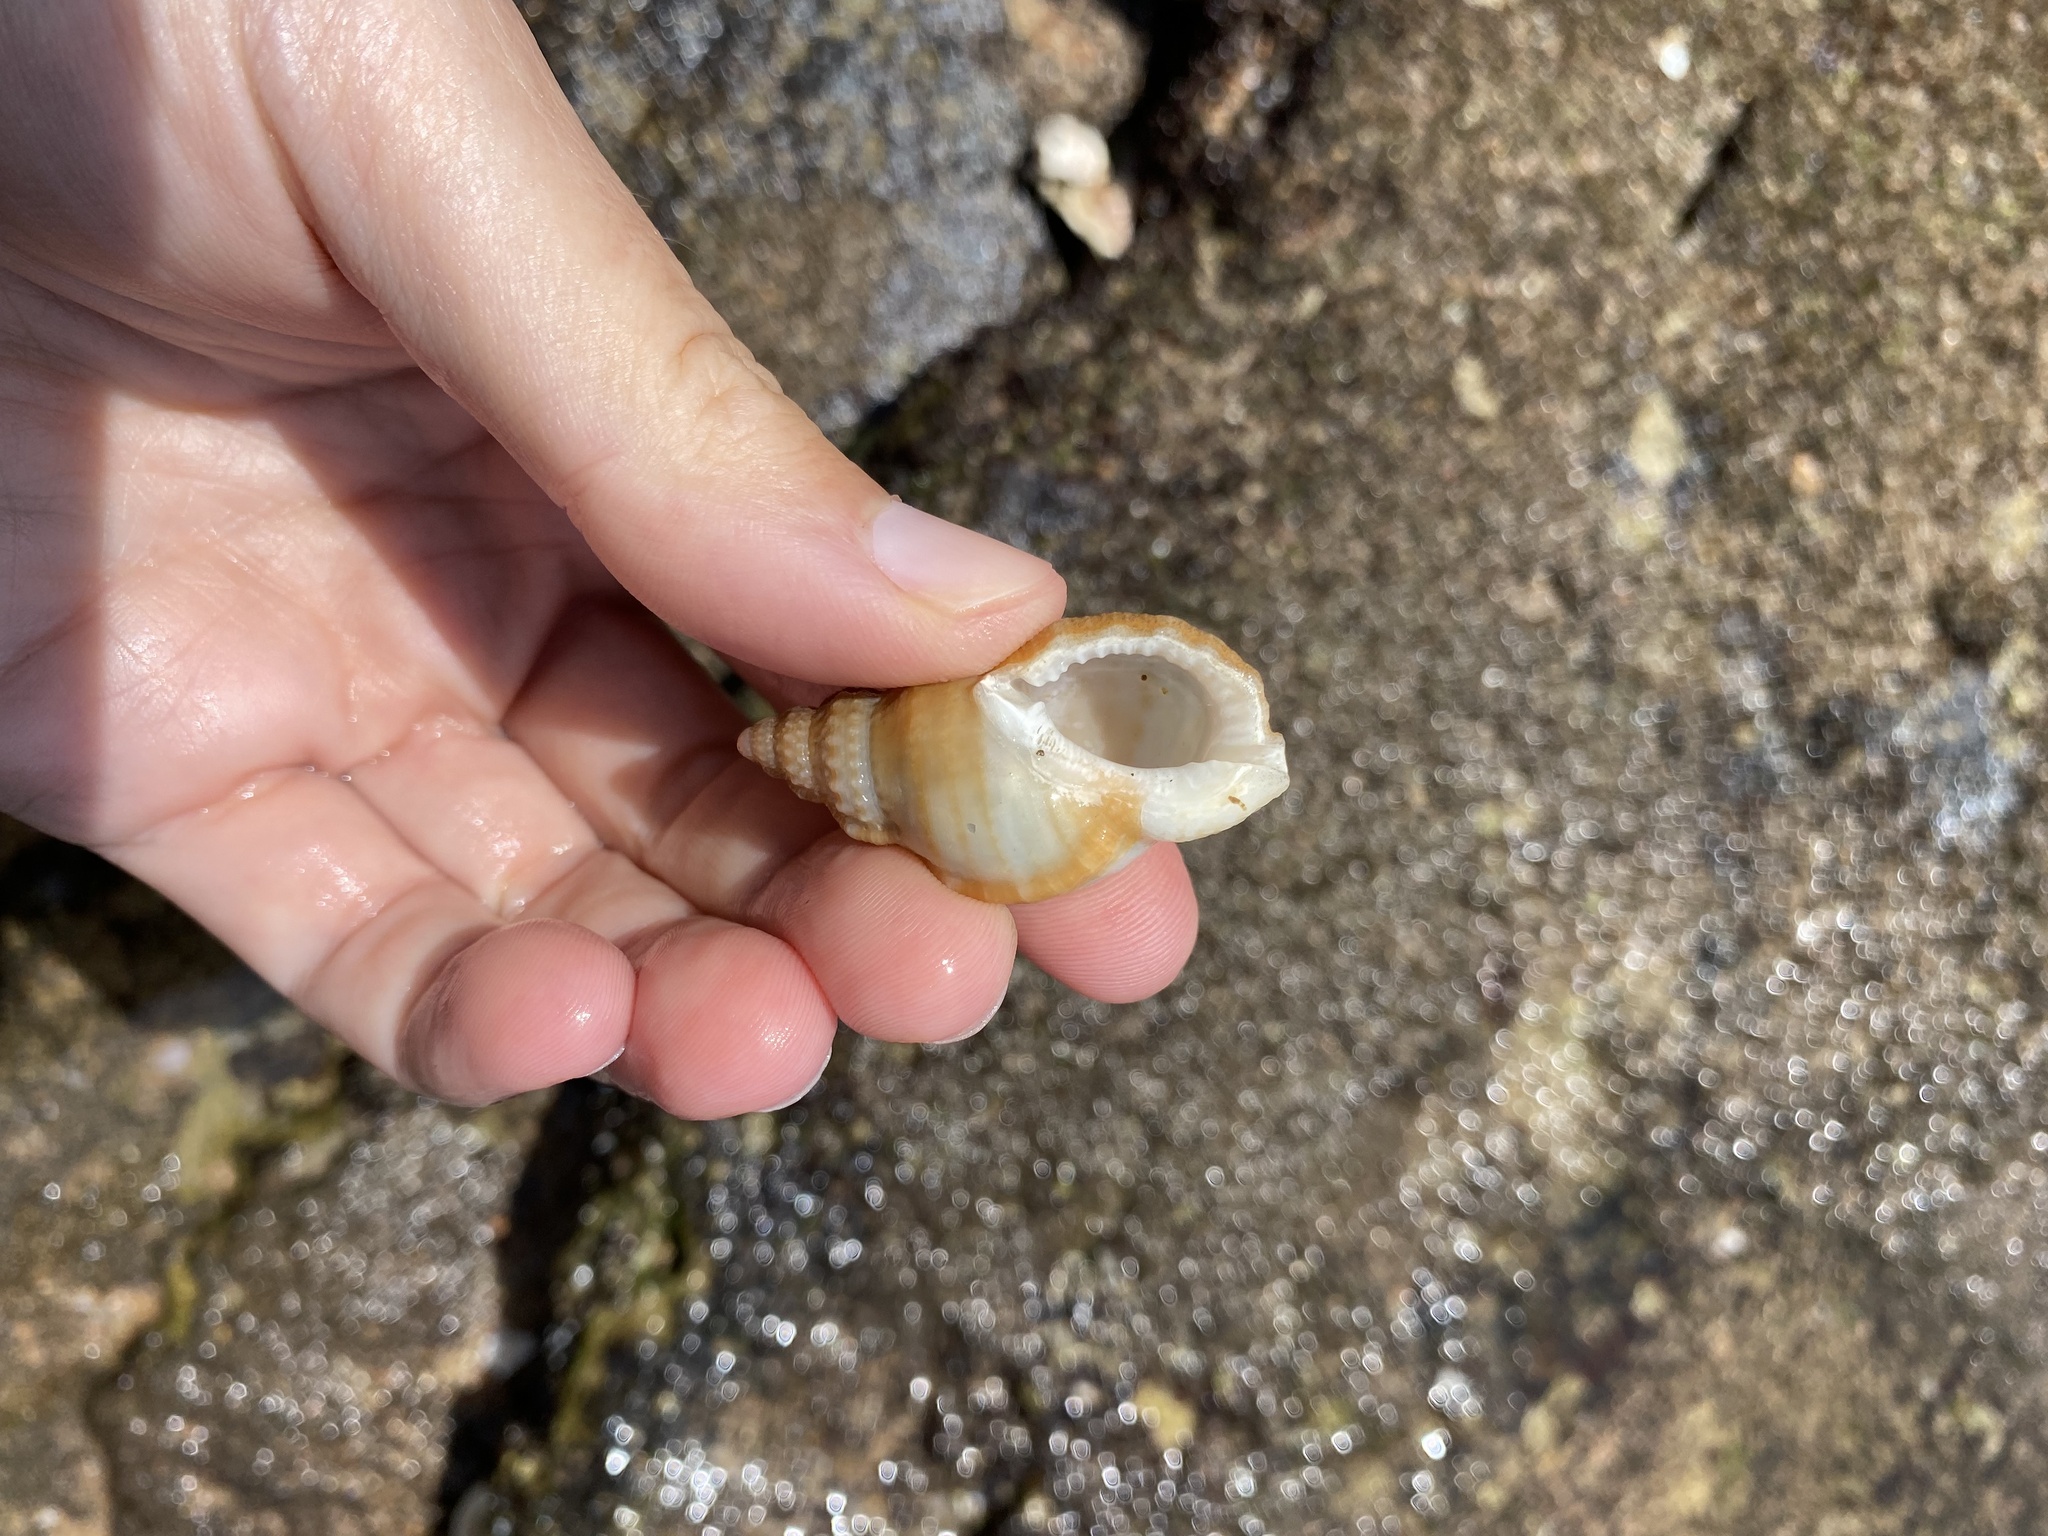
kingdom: Animalia
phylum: Mollusca
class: Gastropoda
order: Littorinimorpha
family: Bursidae
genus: Dulcerana
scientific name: Dulcerana granularis
